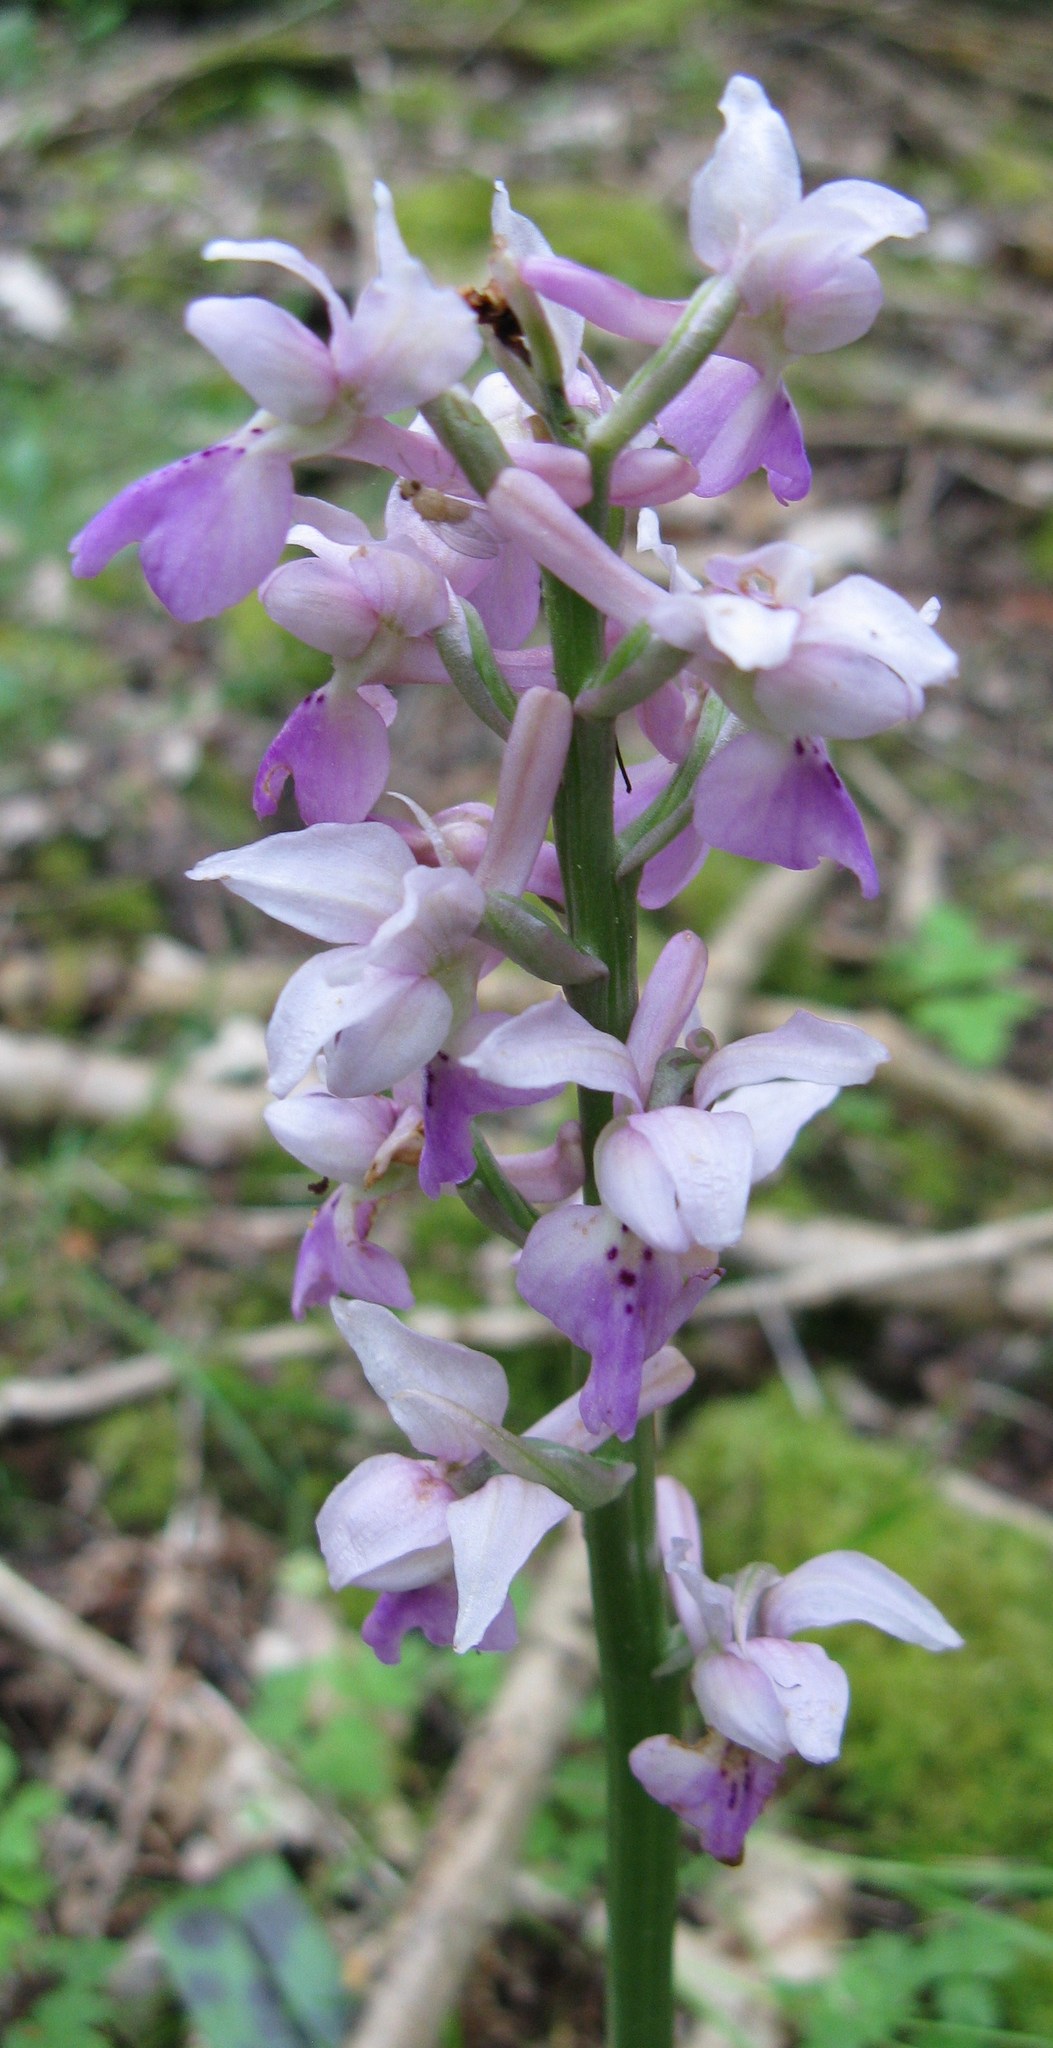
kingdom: Plantae
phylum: Tracheophyta
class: Liliopsida
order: Asparagales
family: Orchidaceae
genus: Orchis
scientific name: Orchis mascula
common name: Early-purple orchid
